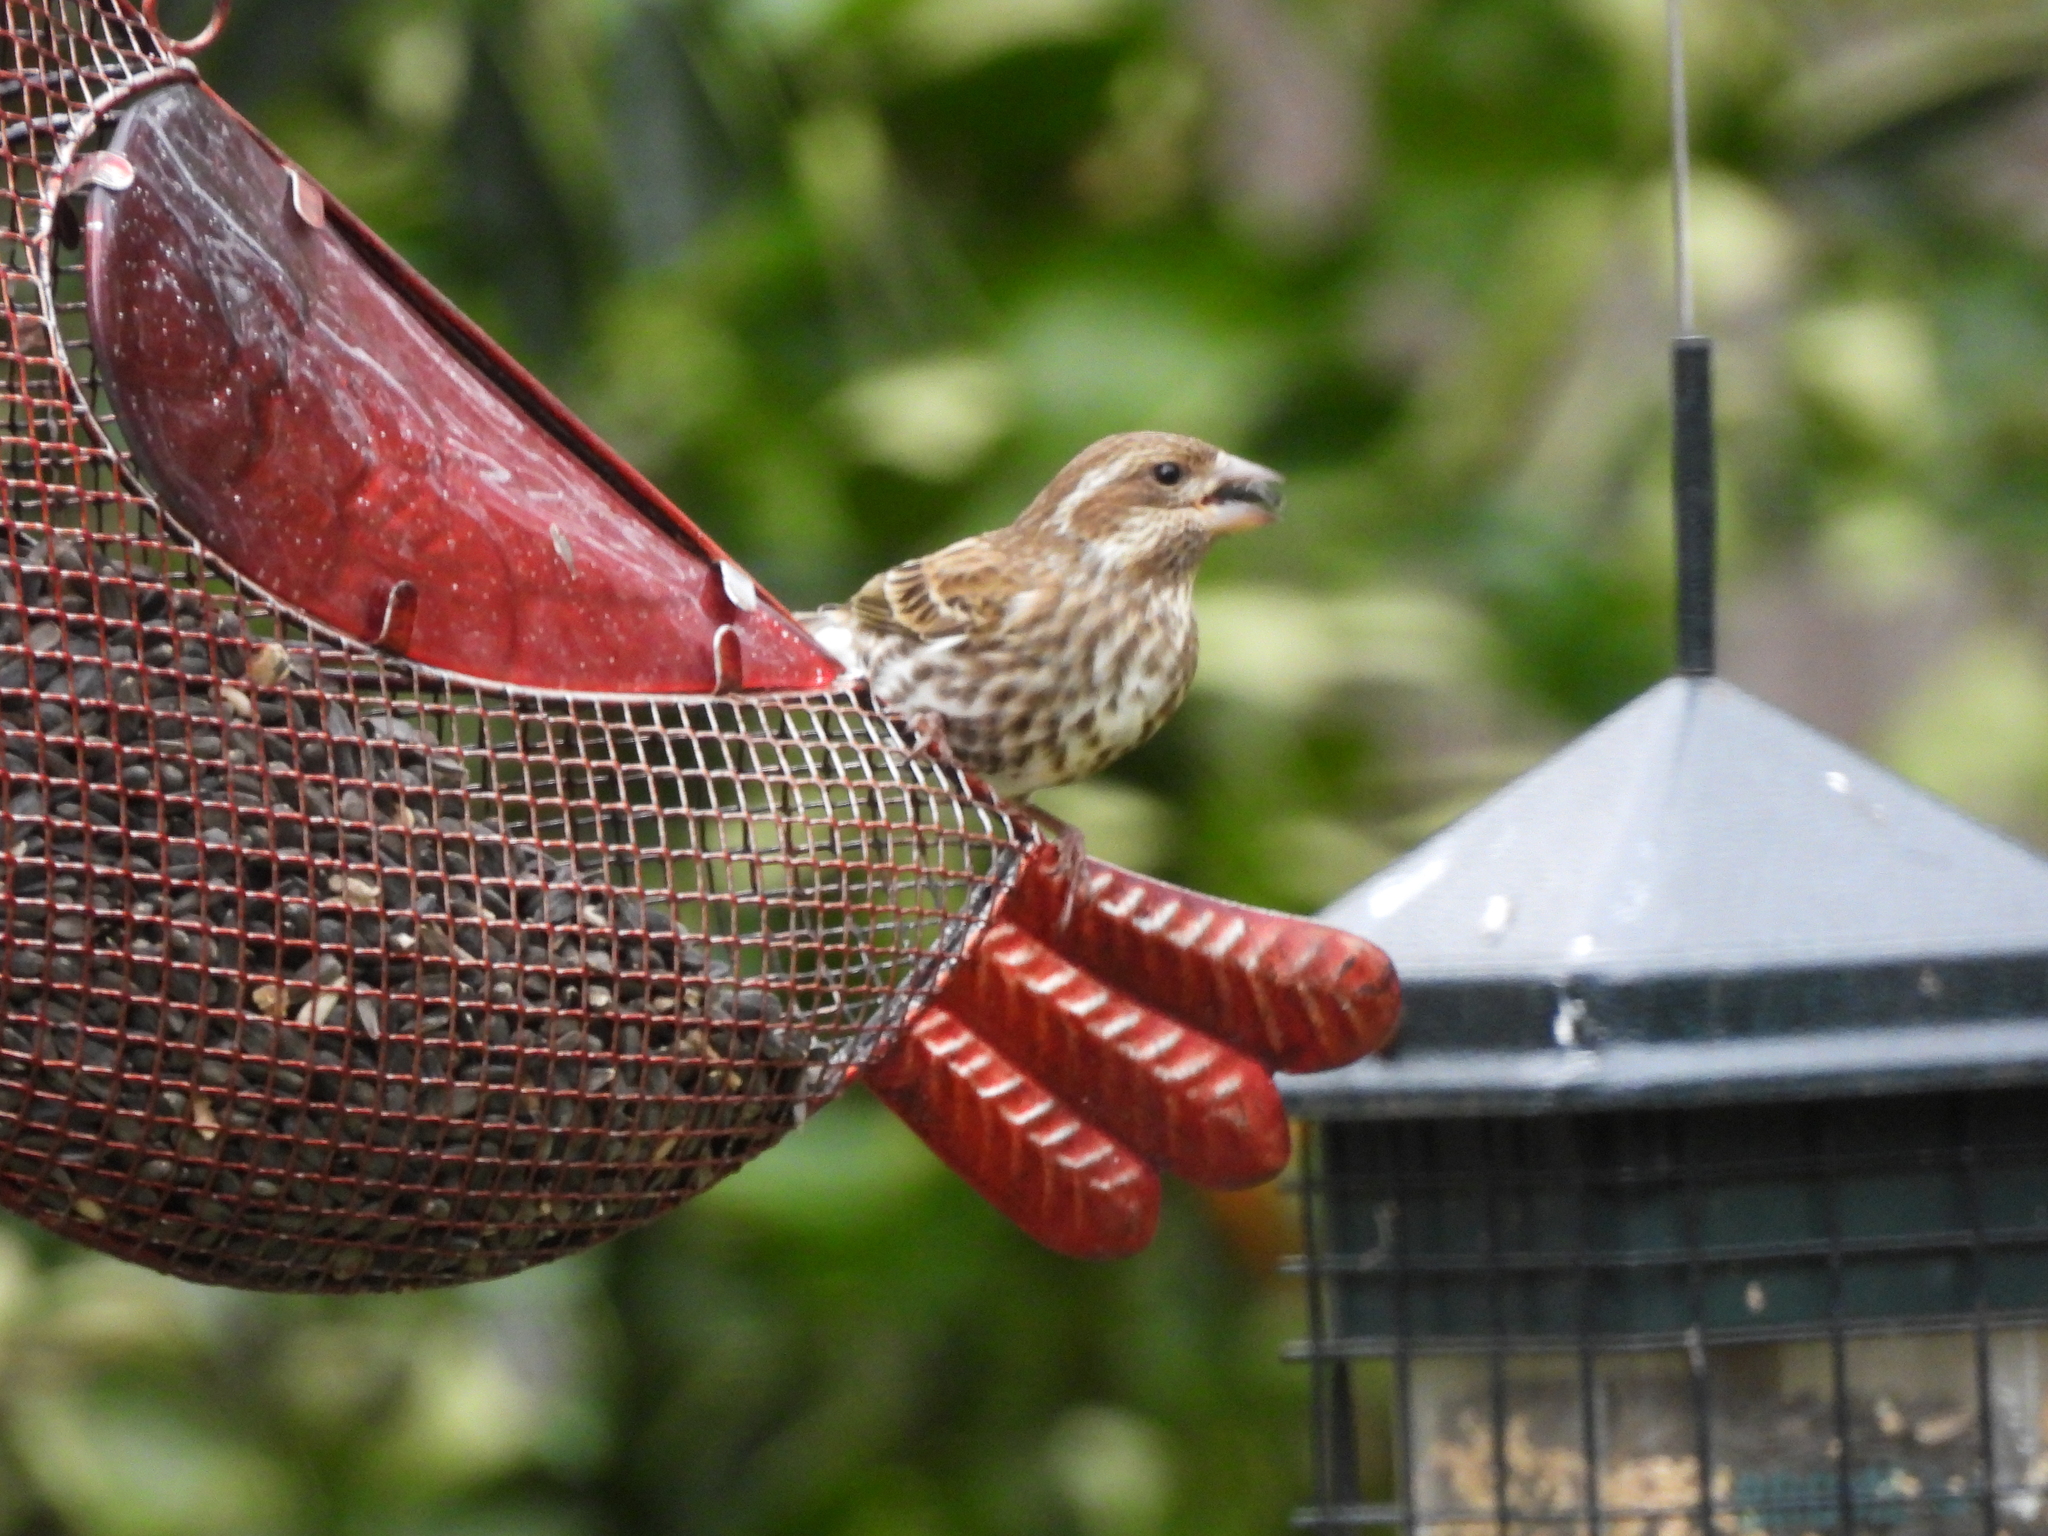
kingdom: Animalia
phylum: Chordata
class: Aves
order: Passeriformes
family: Fringillidae
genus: Haemorhous
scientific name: Haemorhous purpureus
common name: Purple finch
